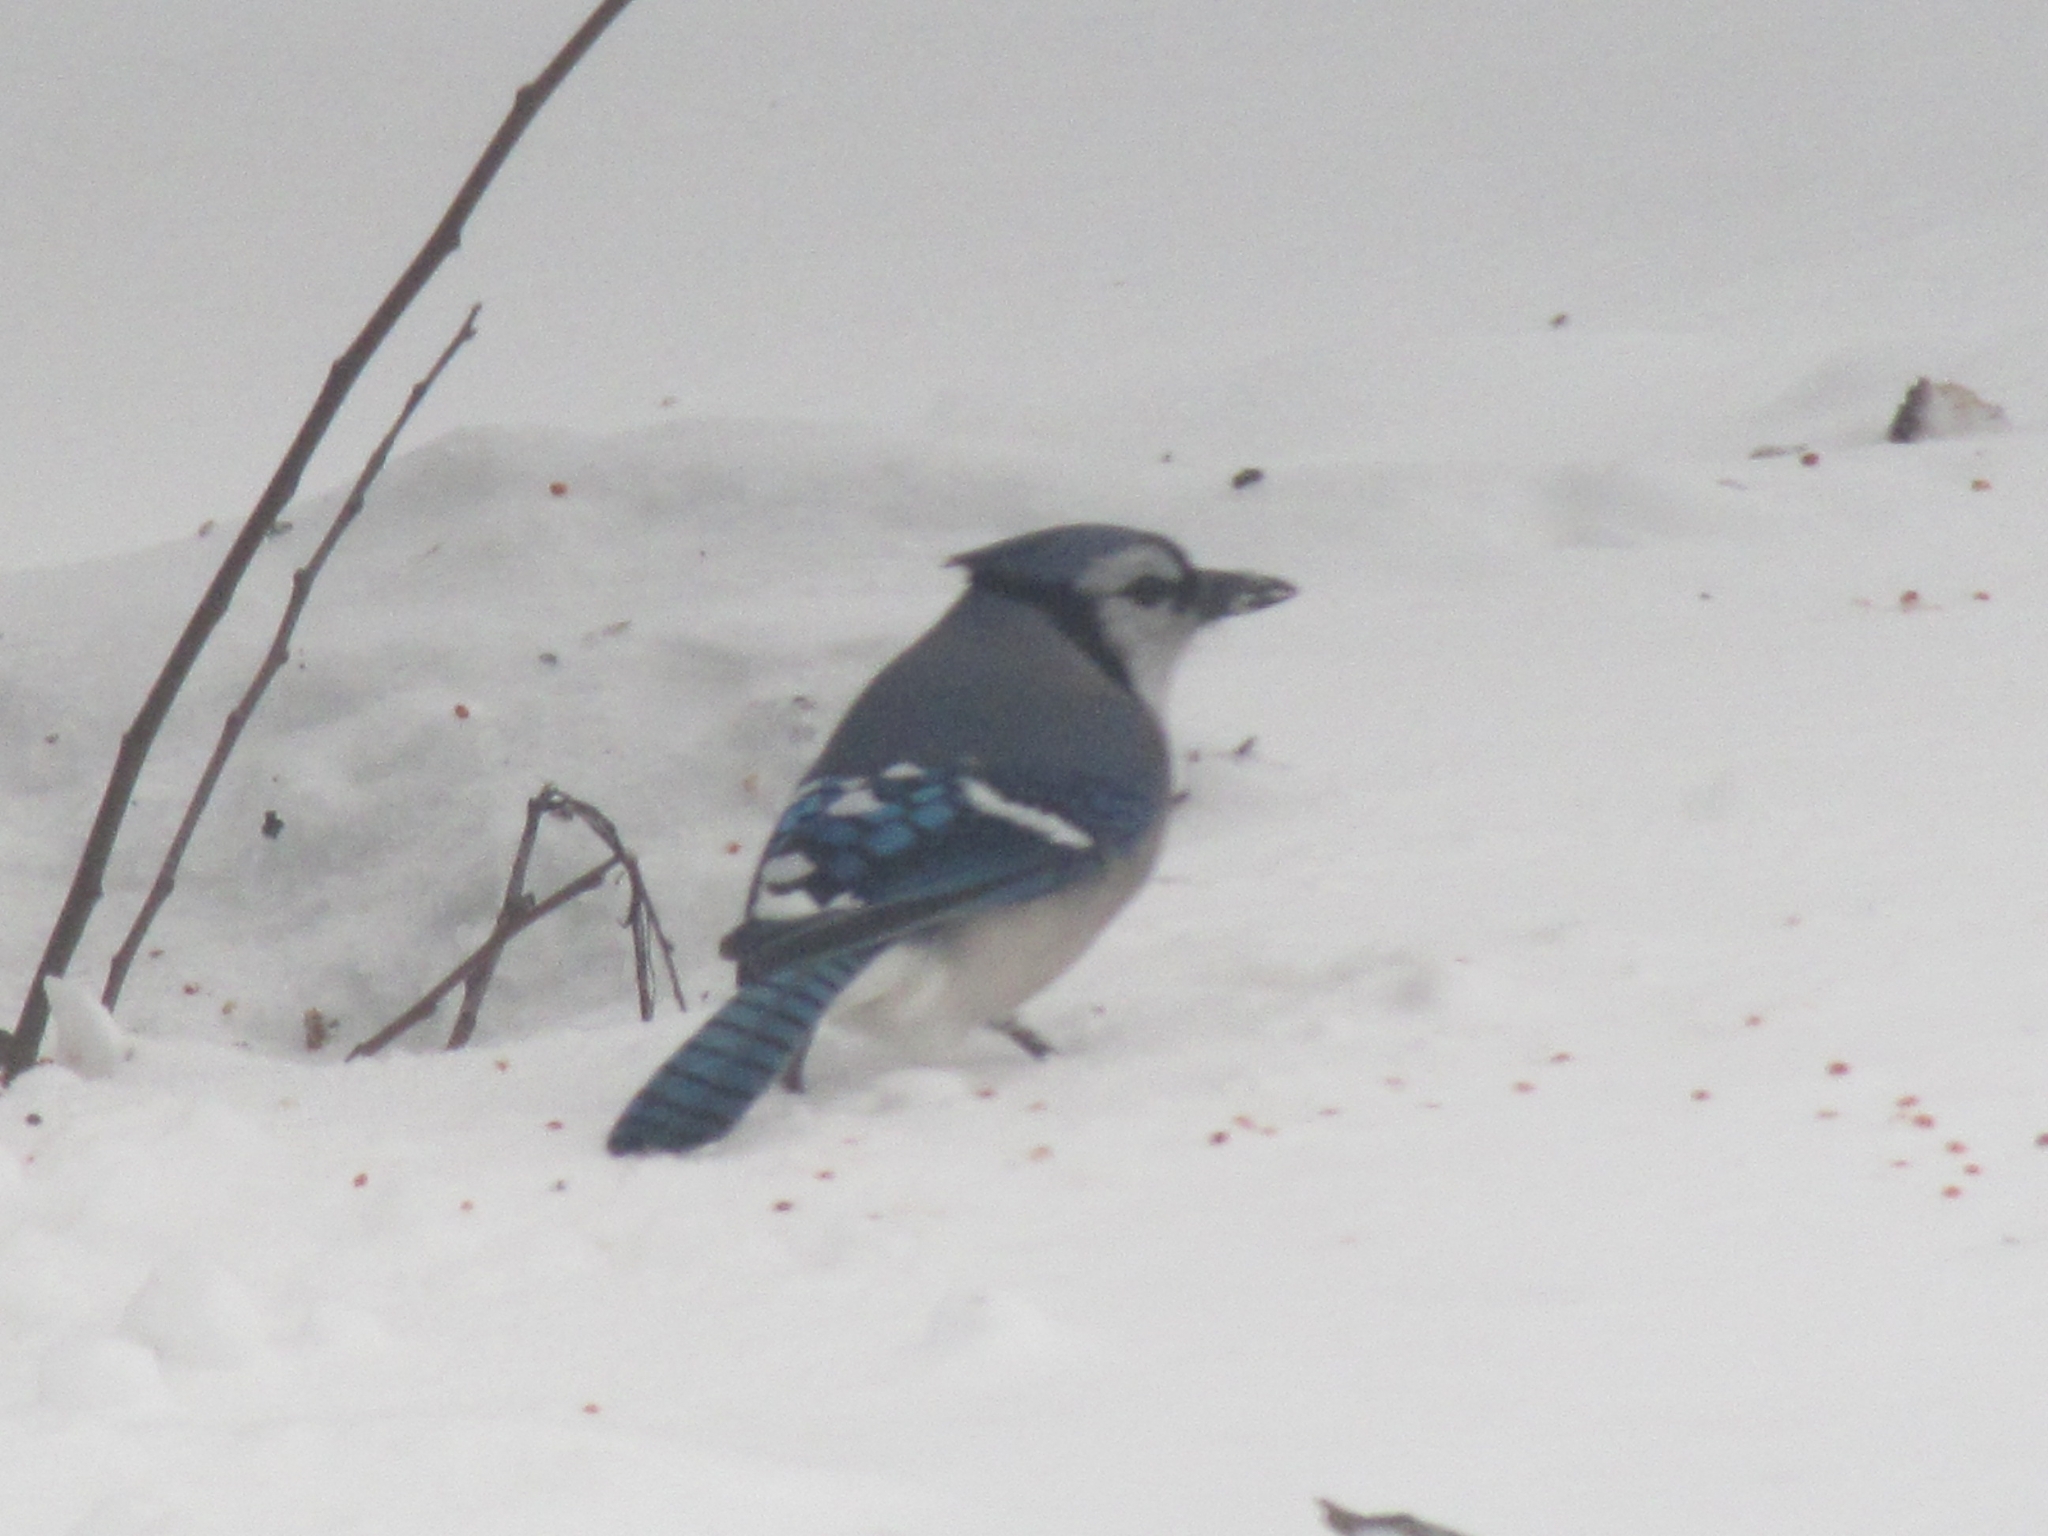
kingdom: Animalia
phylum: Chordata
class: Aves
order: Passeriformes
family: Corvidae
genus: Cyanocitta
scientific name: Cyanocitta cristata
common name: Blue jay
